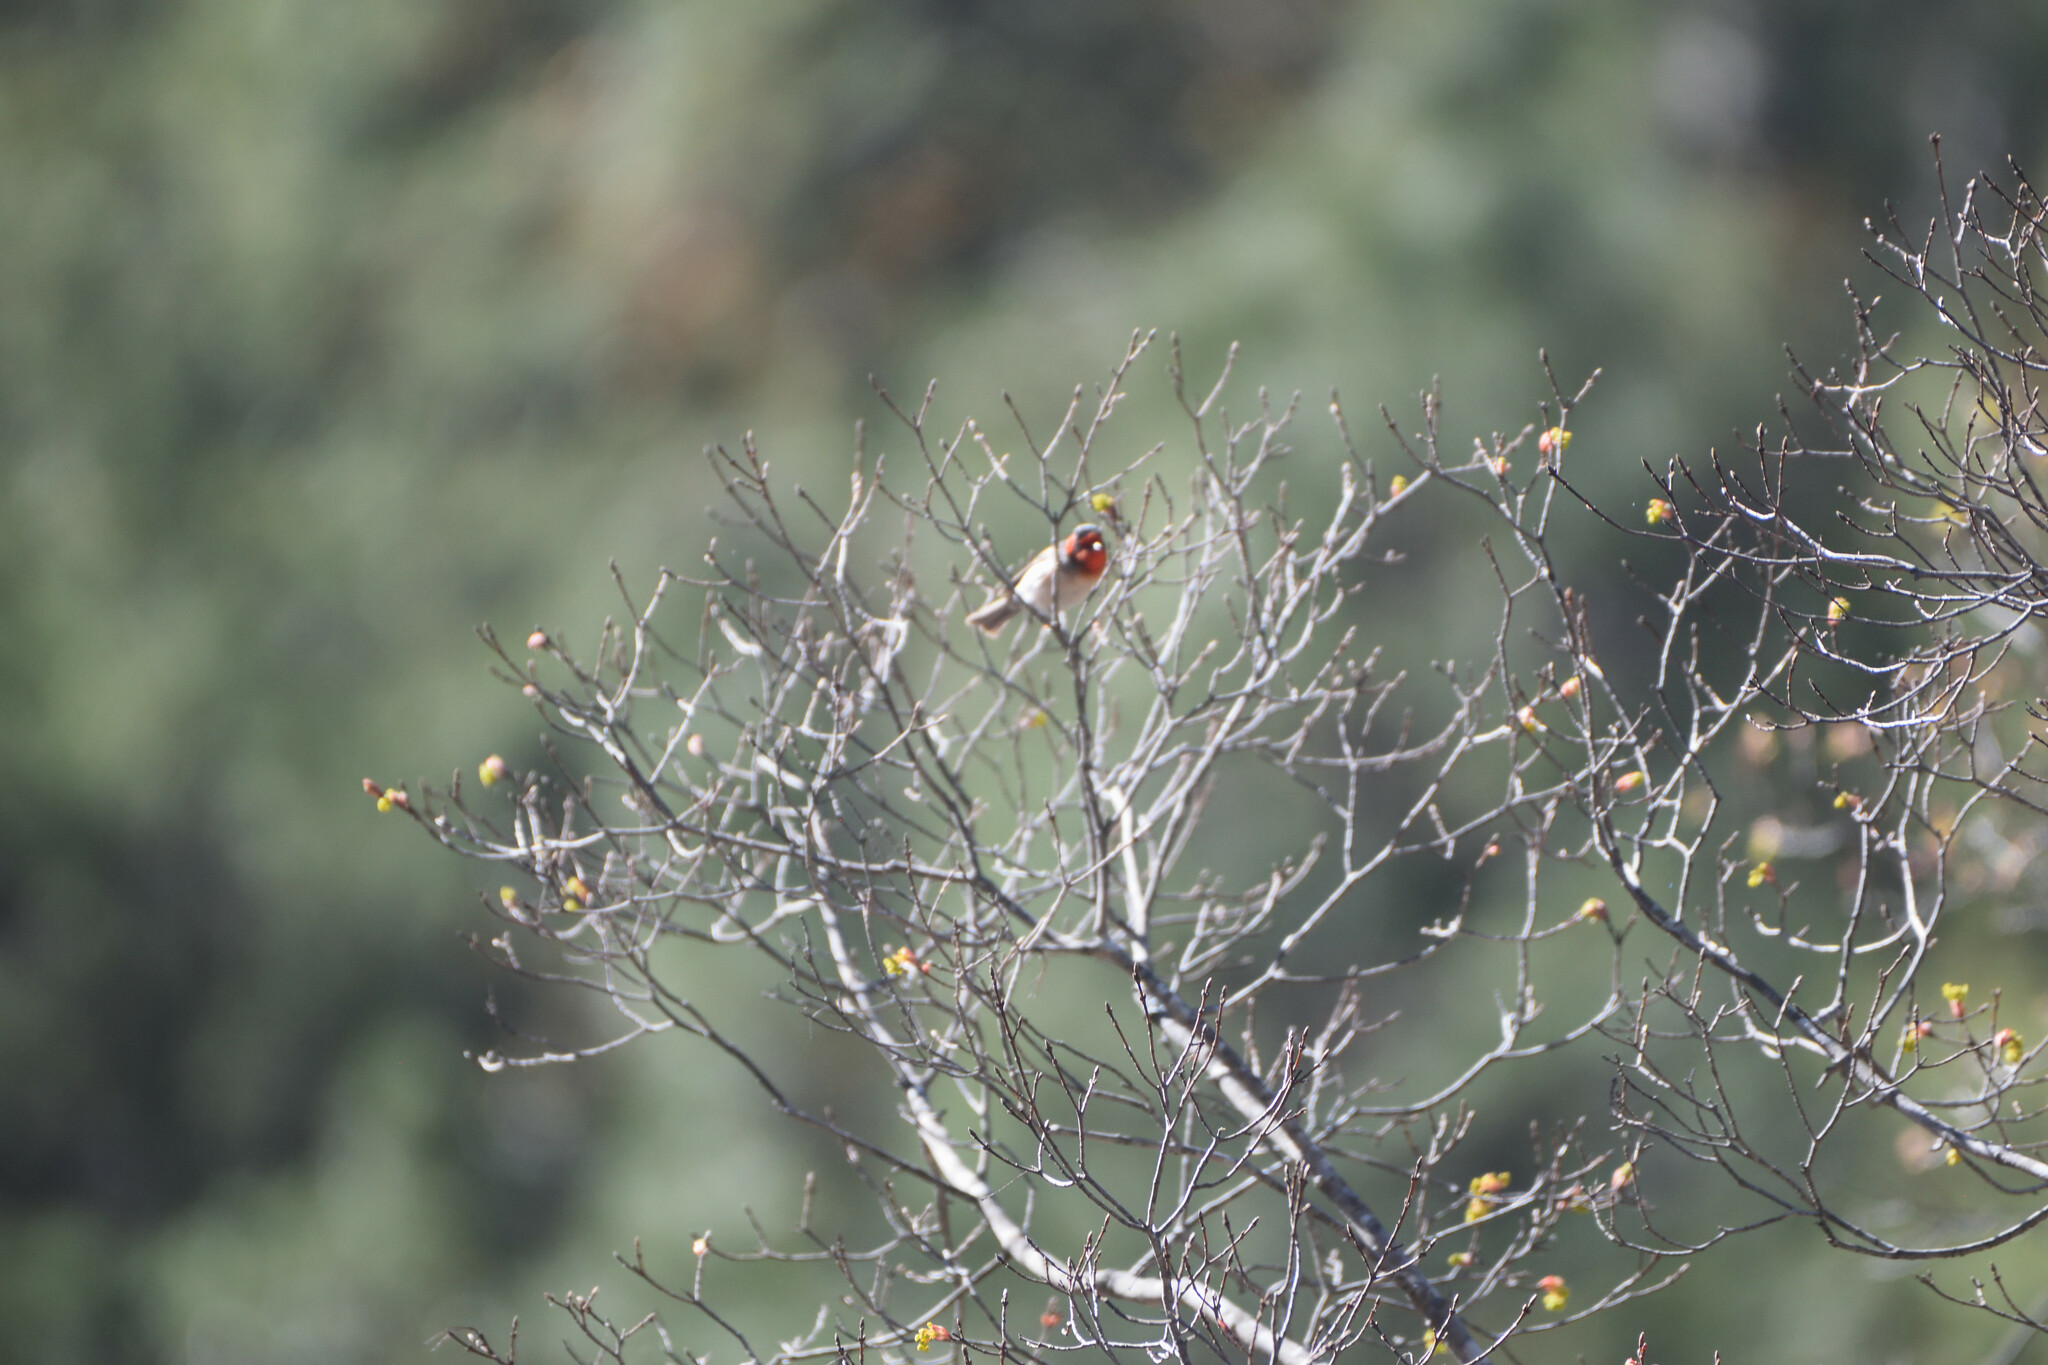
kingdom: Animalia
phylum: Chordata
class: Aves
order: Passeriformes
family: Parulidae
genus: Cardellina
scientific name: Cardellina rubrifrons
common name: Red-faced warbler
